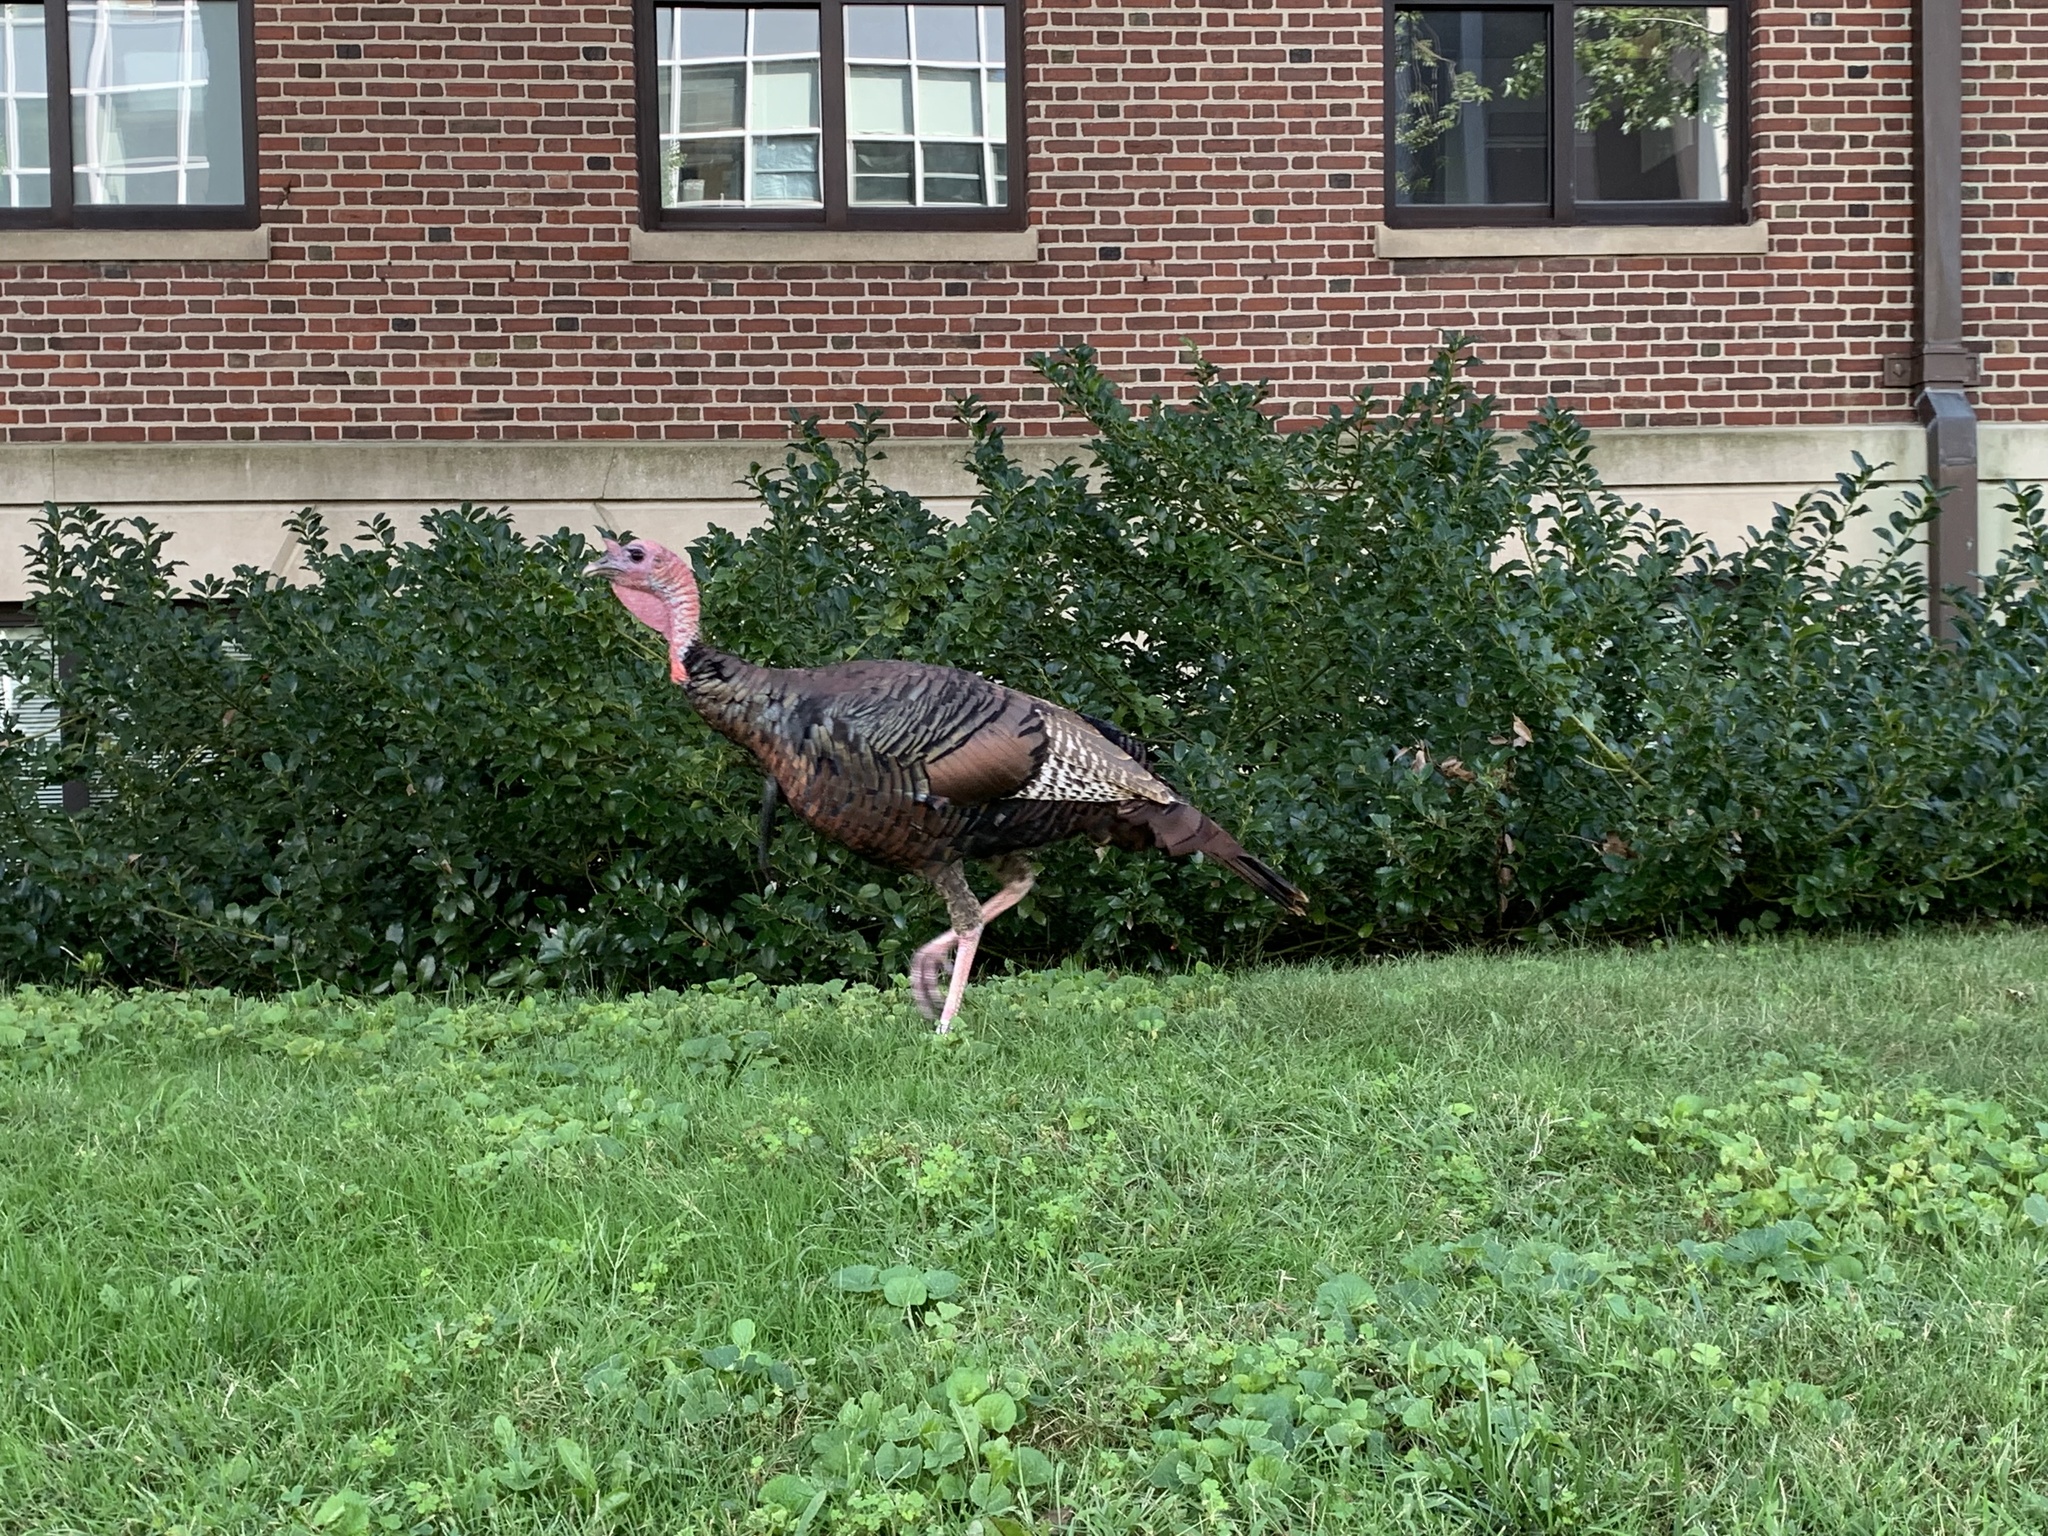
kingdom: Animalia
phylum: Chordata
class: Aves
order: Galliformes
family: Phasianidae
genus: Meleagris
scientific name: Meleagris gallopavo
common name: Wild turkey
